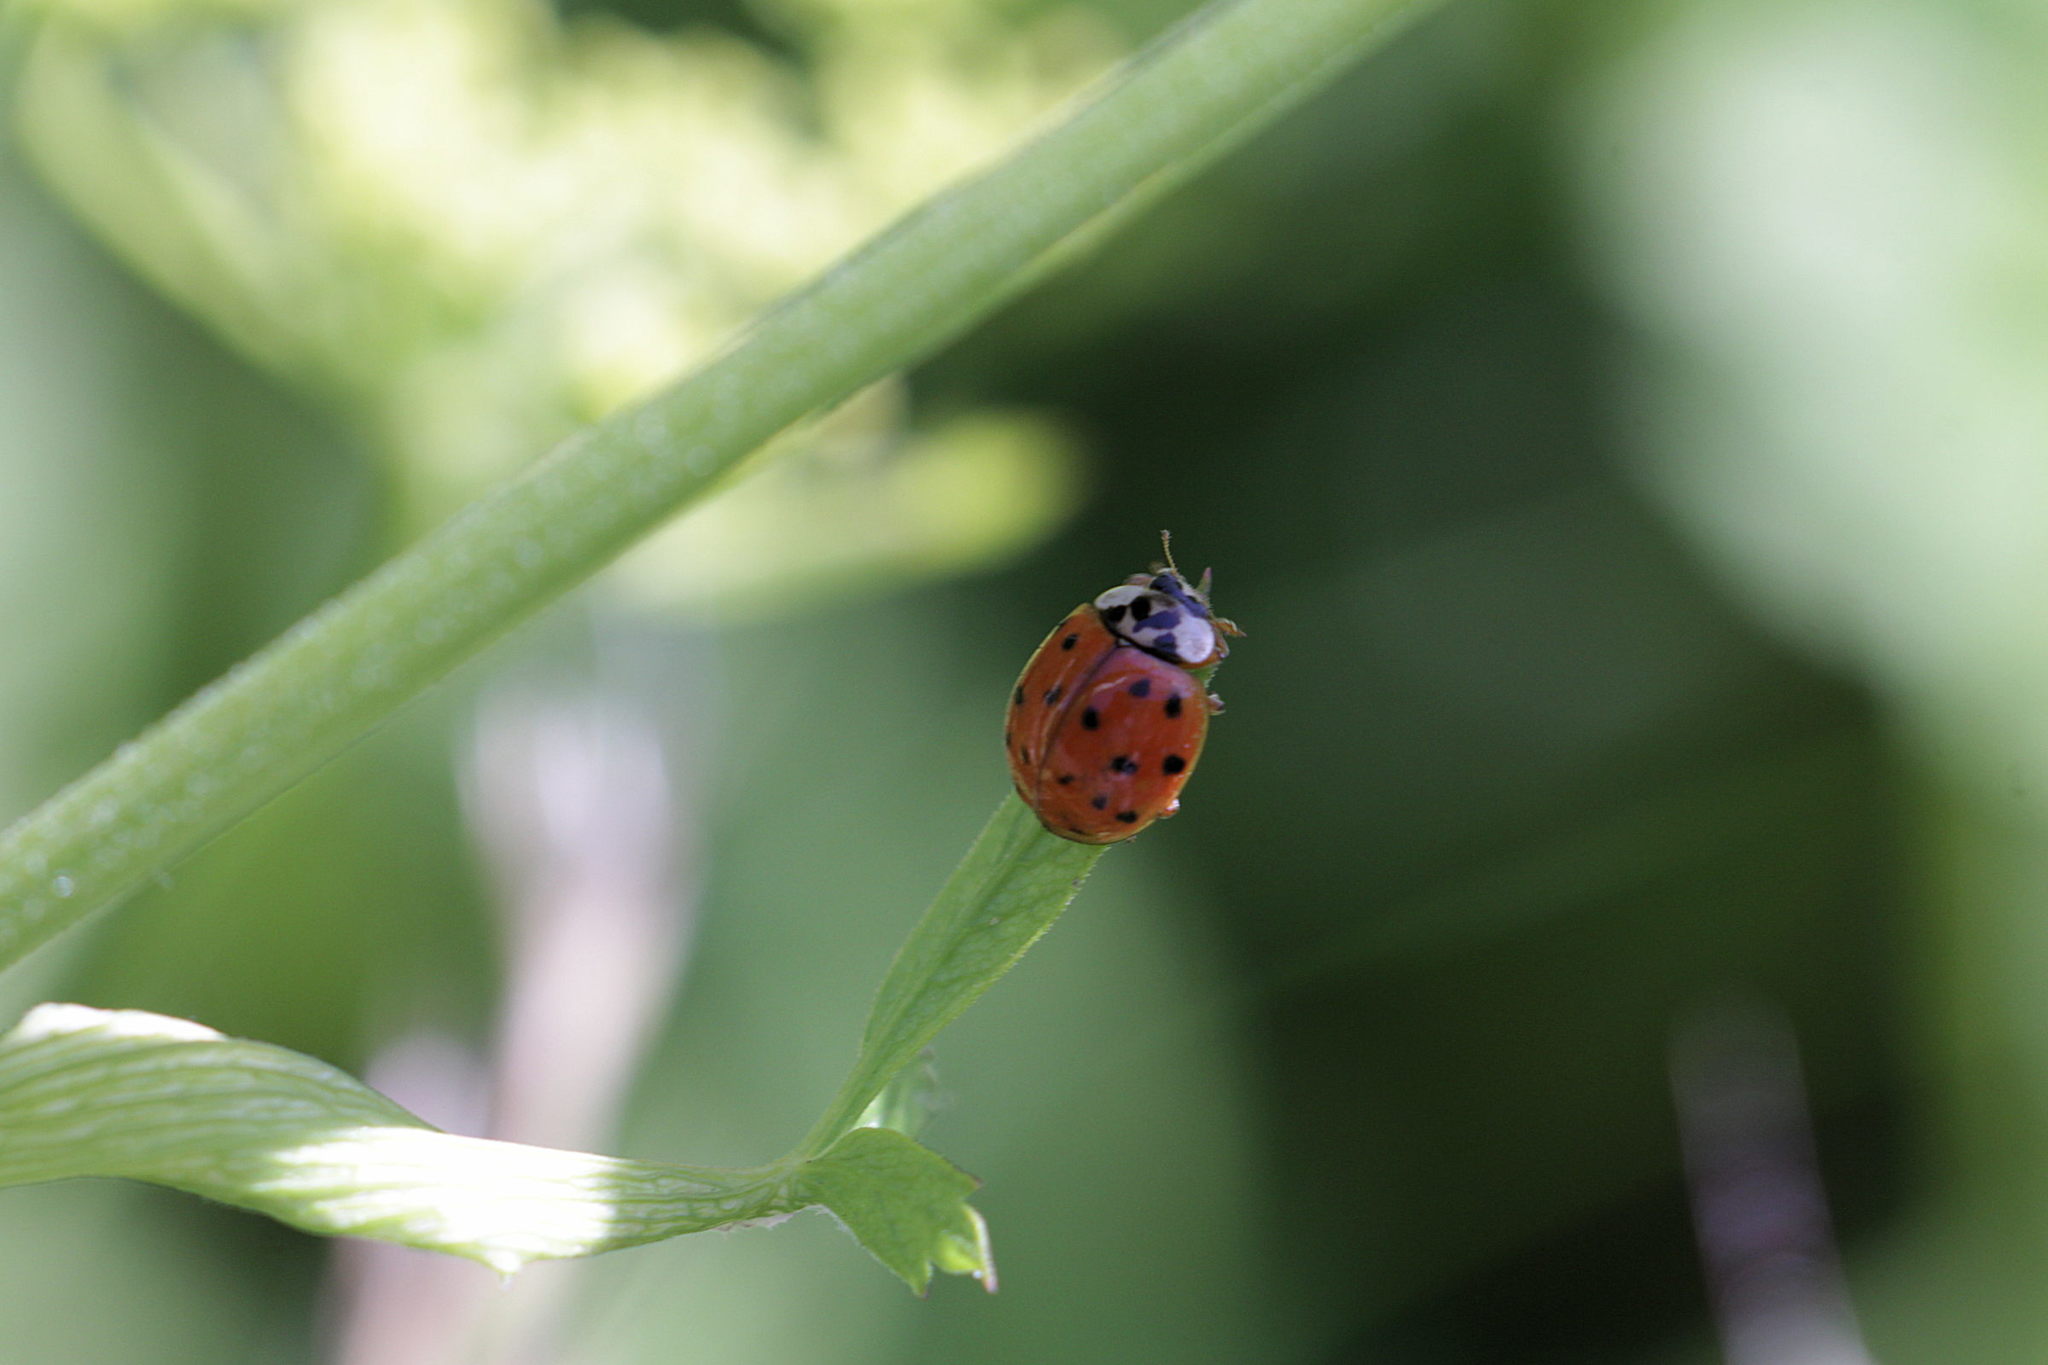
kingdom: Animalia
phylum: Arthropoda
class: Insecta
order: Coleoptera
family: Coccinellidae
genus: Harmonia
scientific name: Harmonia axyridis
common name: Harlequin ladybird
